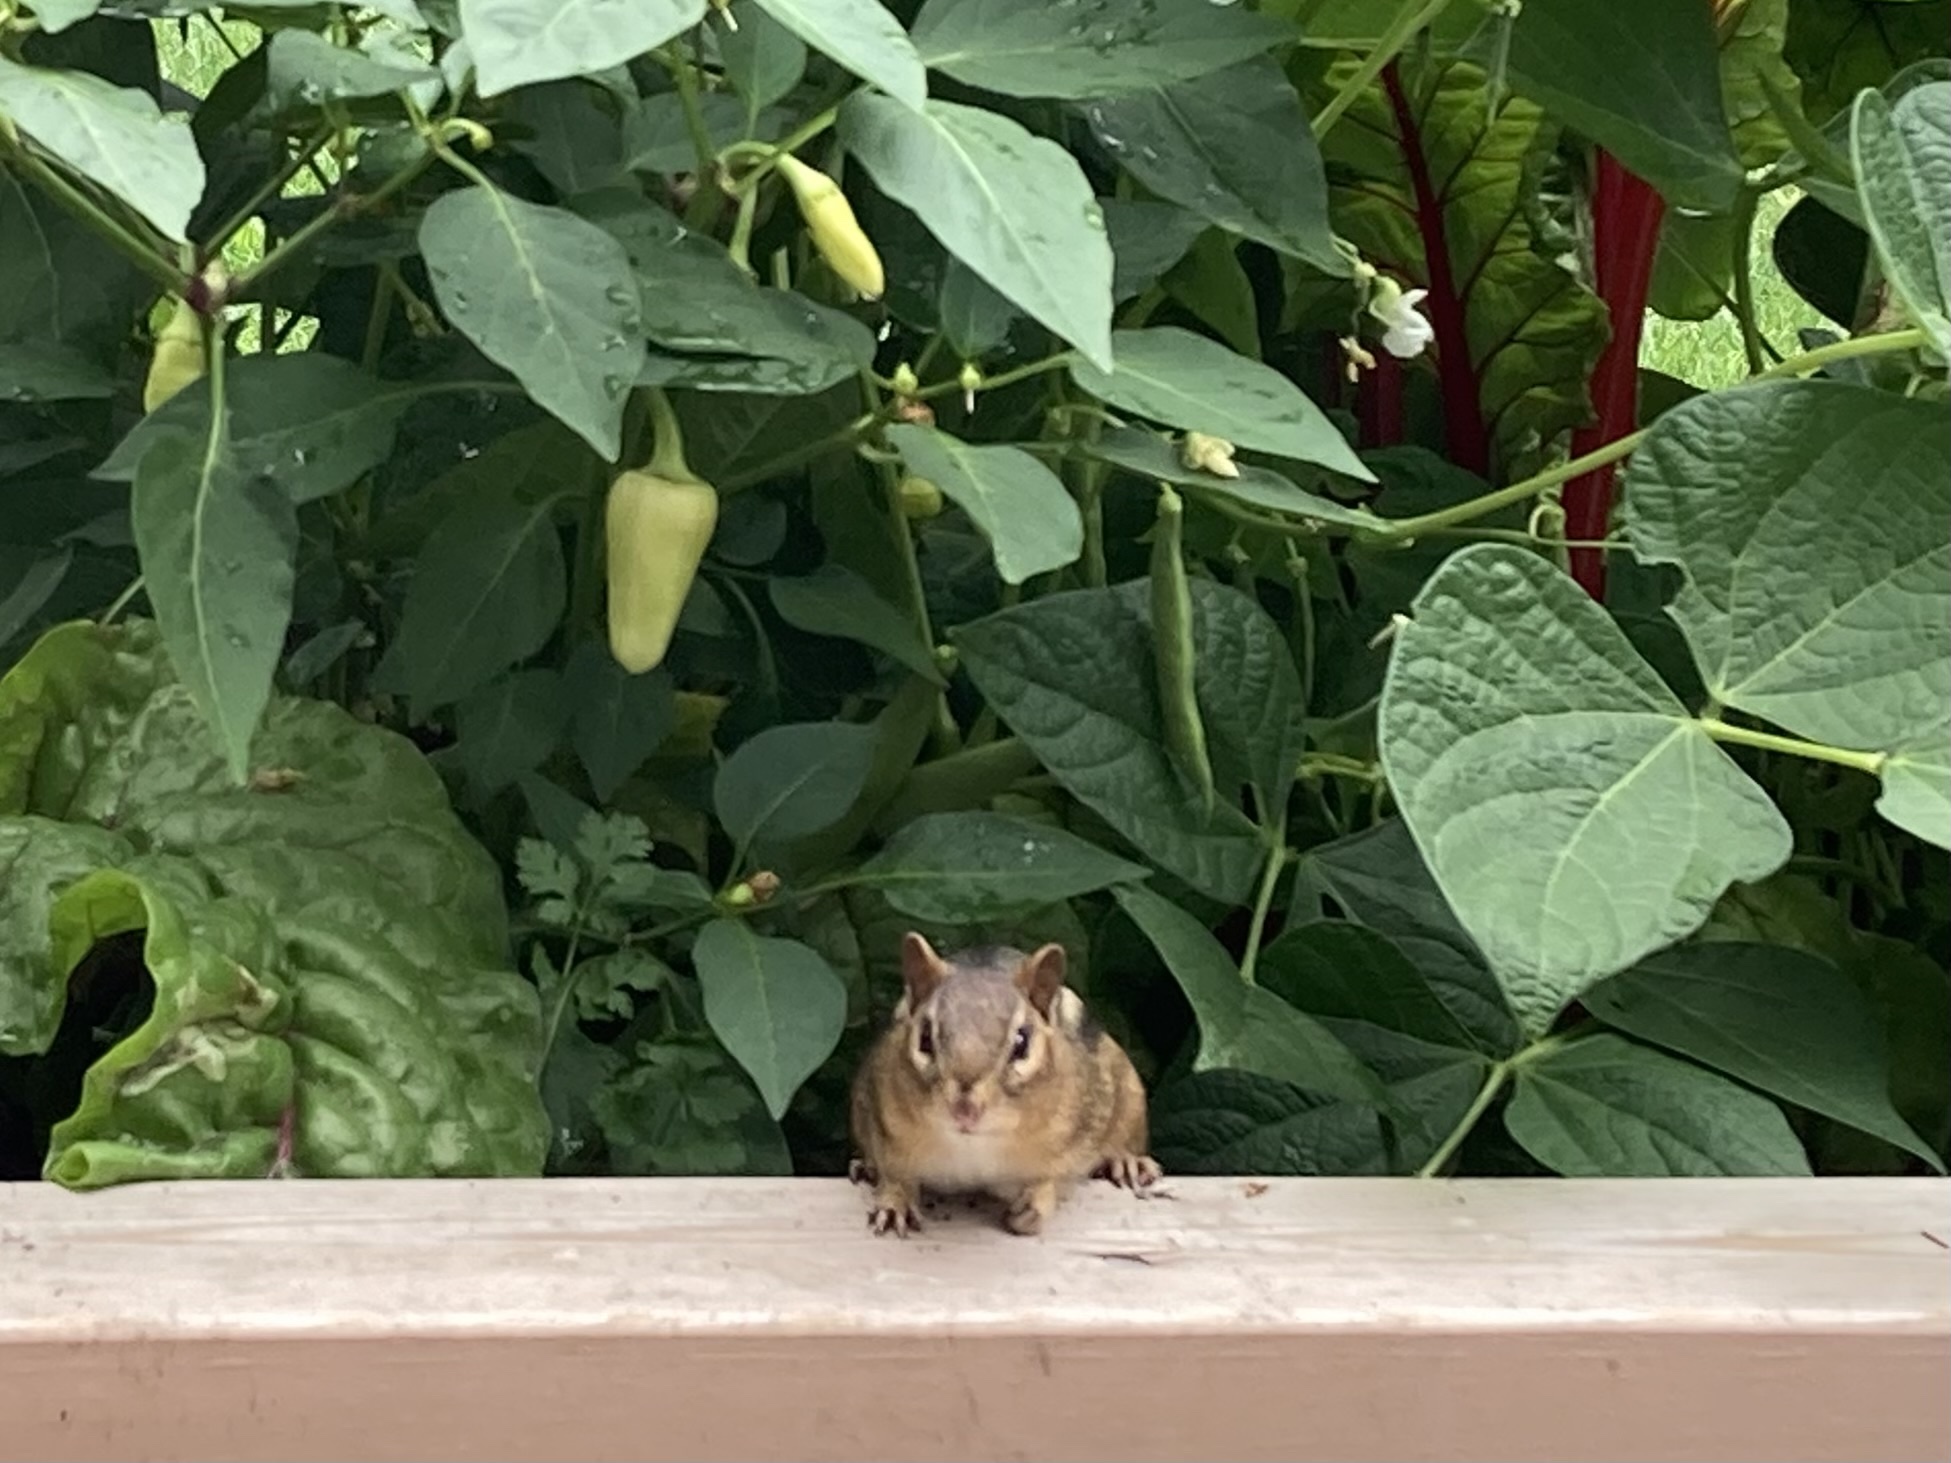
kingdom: Animalia
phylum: Chordata
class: Mammalia
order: Rodentia
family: Sciuridae
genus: Tamias
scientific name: Tamias striatus
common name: Eastern chipmunk
